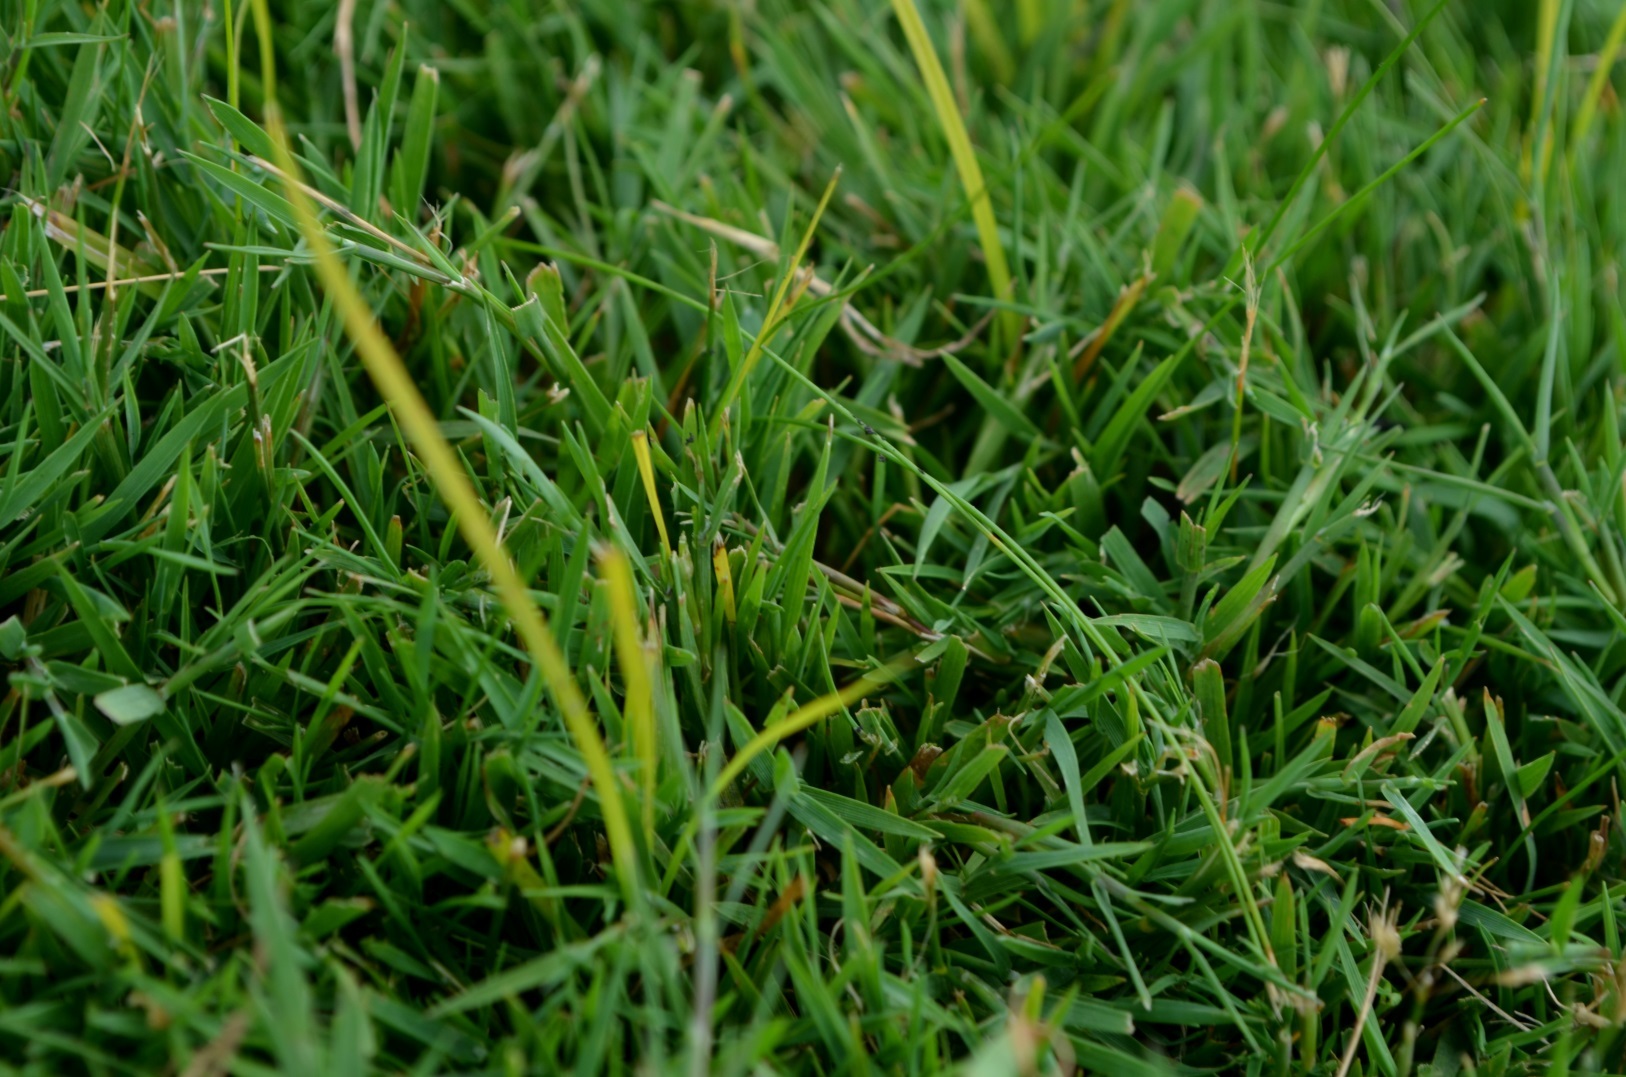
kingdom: Plantae
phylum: Tracheophyta
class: Liliopsida
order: Poales
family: Poaceae
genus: Agrostis
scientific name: Agrostis stolonifera
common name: Creeping bentgrass
